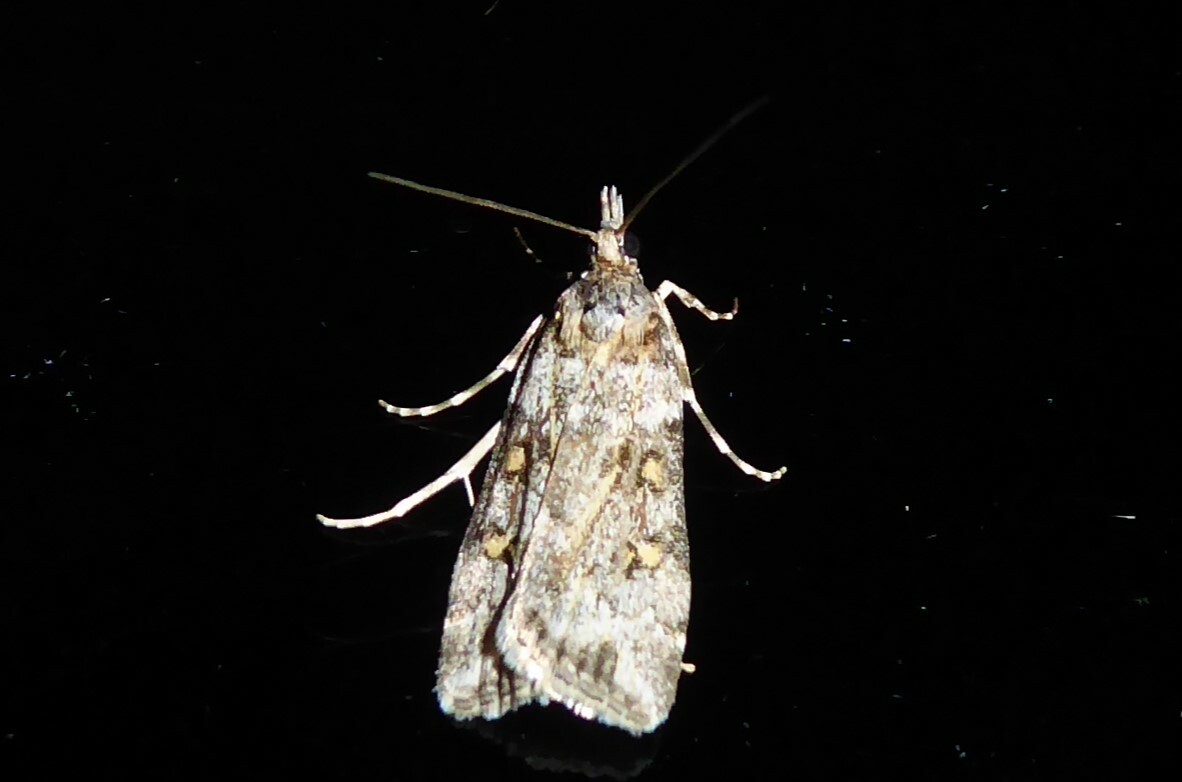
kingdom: Animalia
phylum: Arthropoda
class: Insecta
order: Lepidoptera
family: Crambidae
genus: Scoparia
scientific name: Scoparia tetracycla
